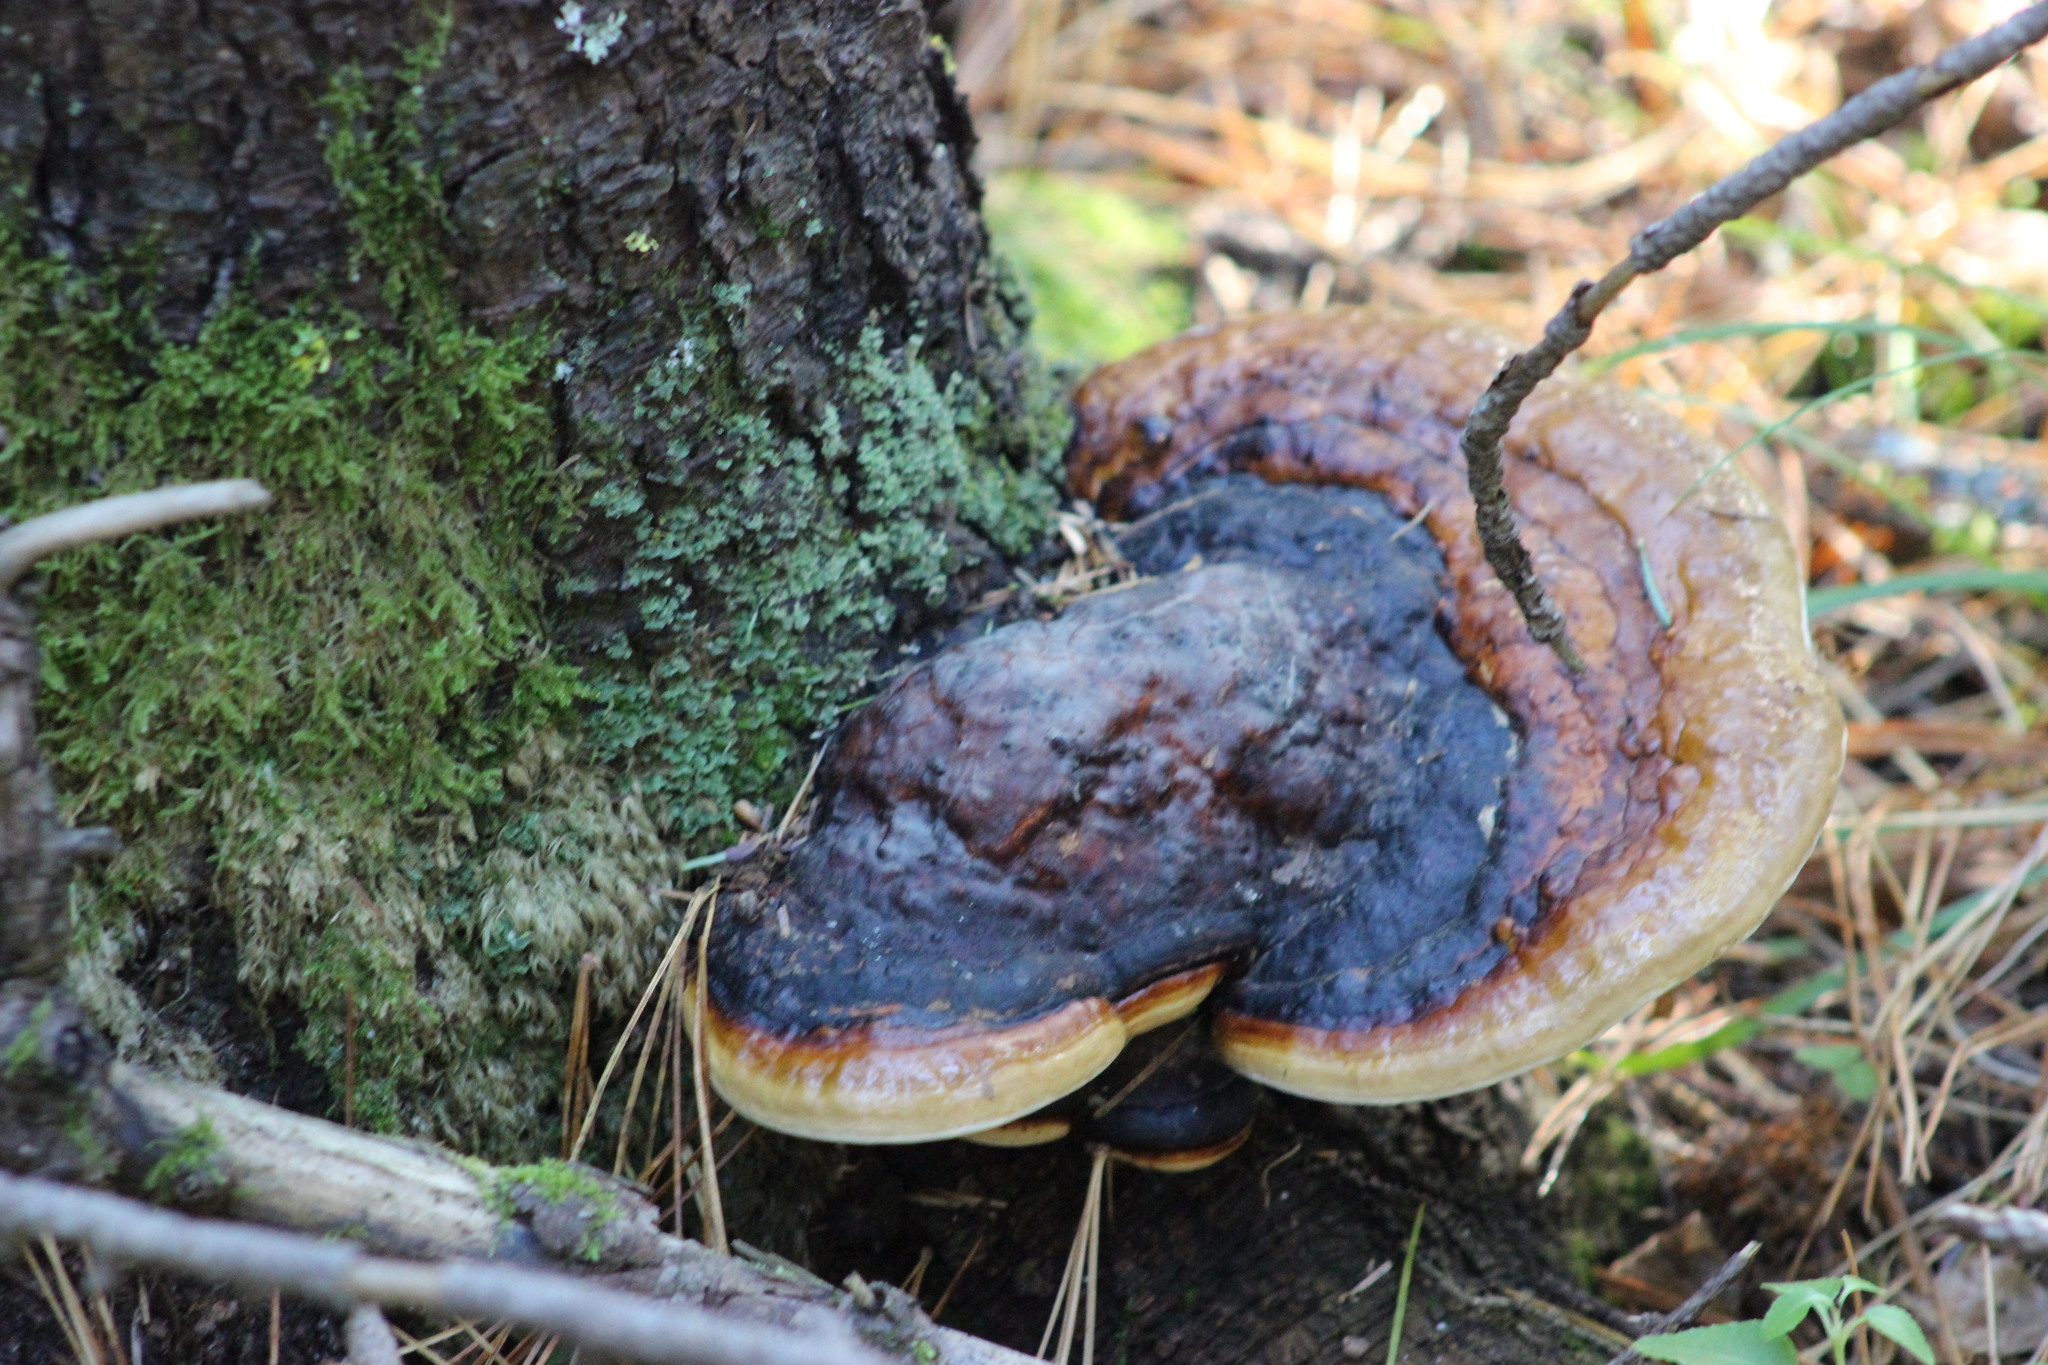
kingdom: Fungi
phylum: Basidiomycota
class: Agaricomycetes
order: Polyporales
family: Fomitopsidaceae
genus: Fomitopsis
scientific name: Fomitopsis pinicola
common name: Red-belted bracket
